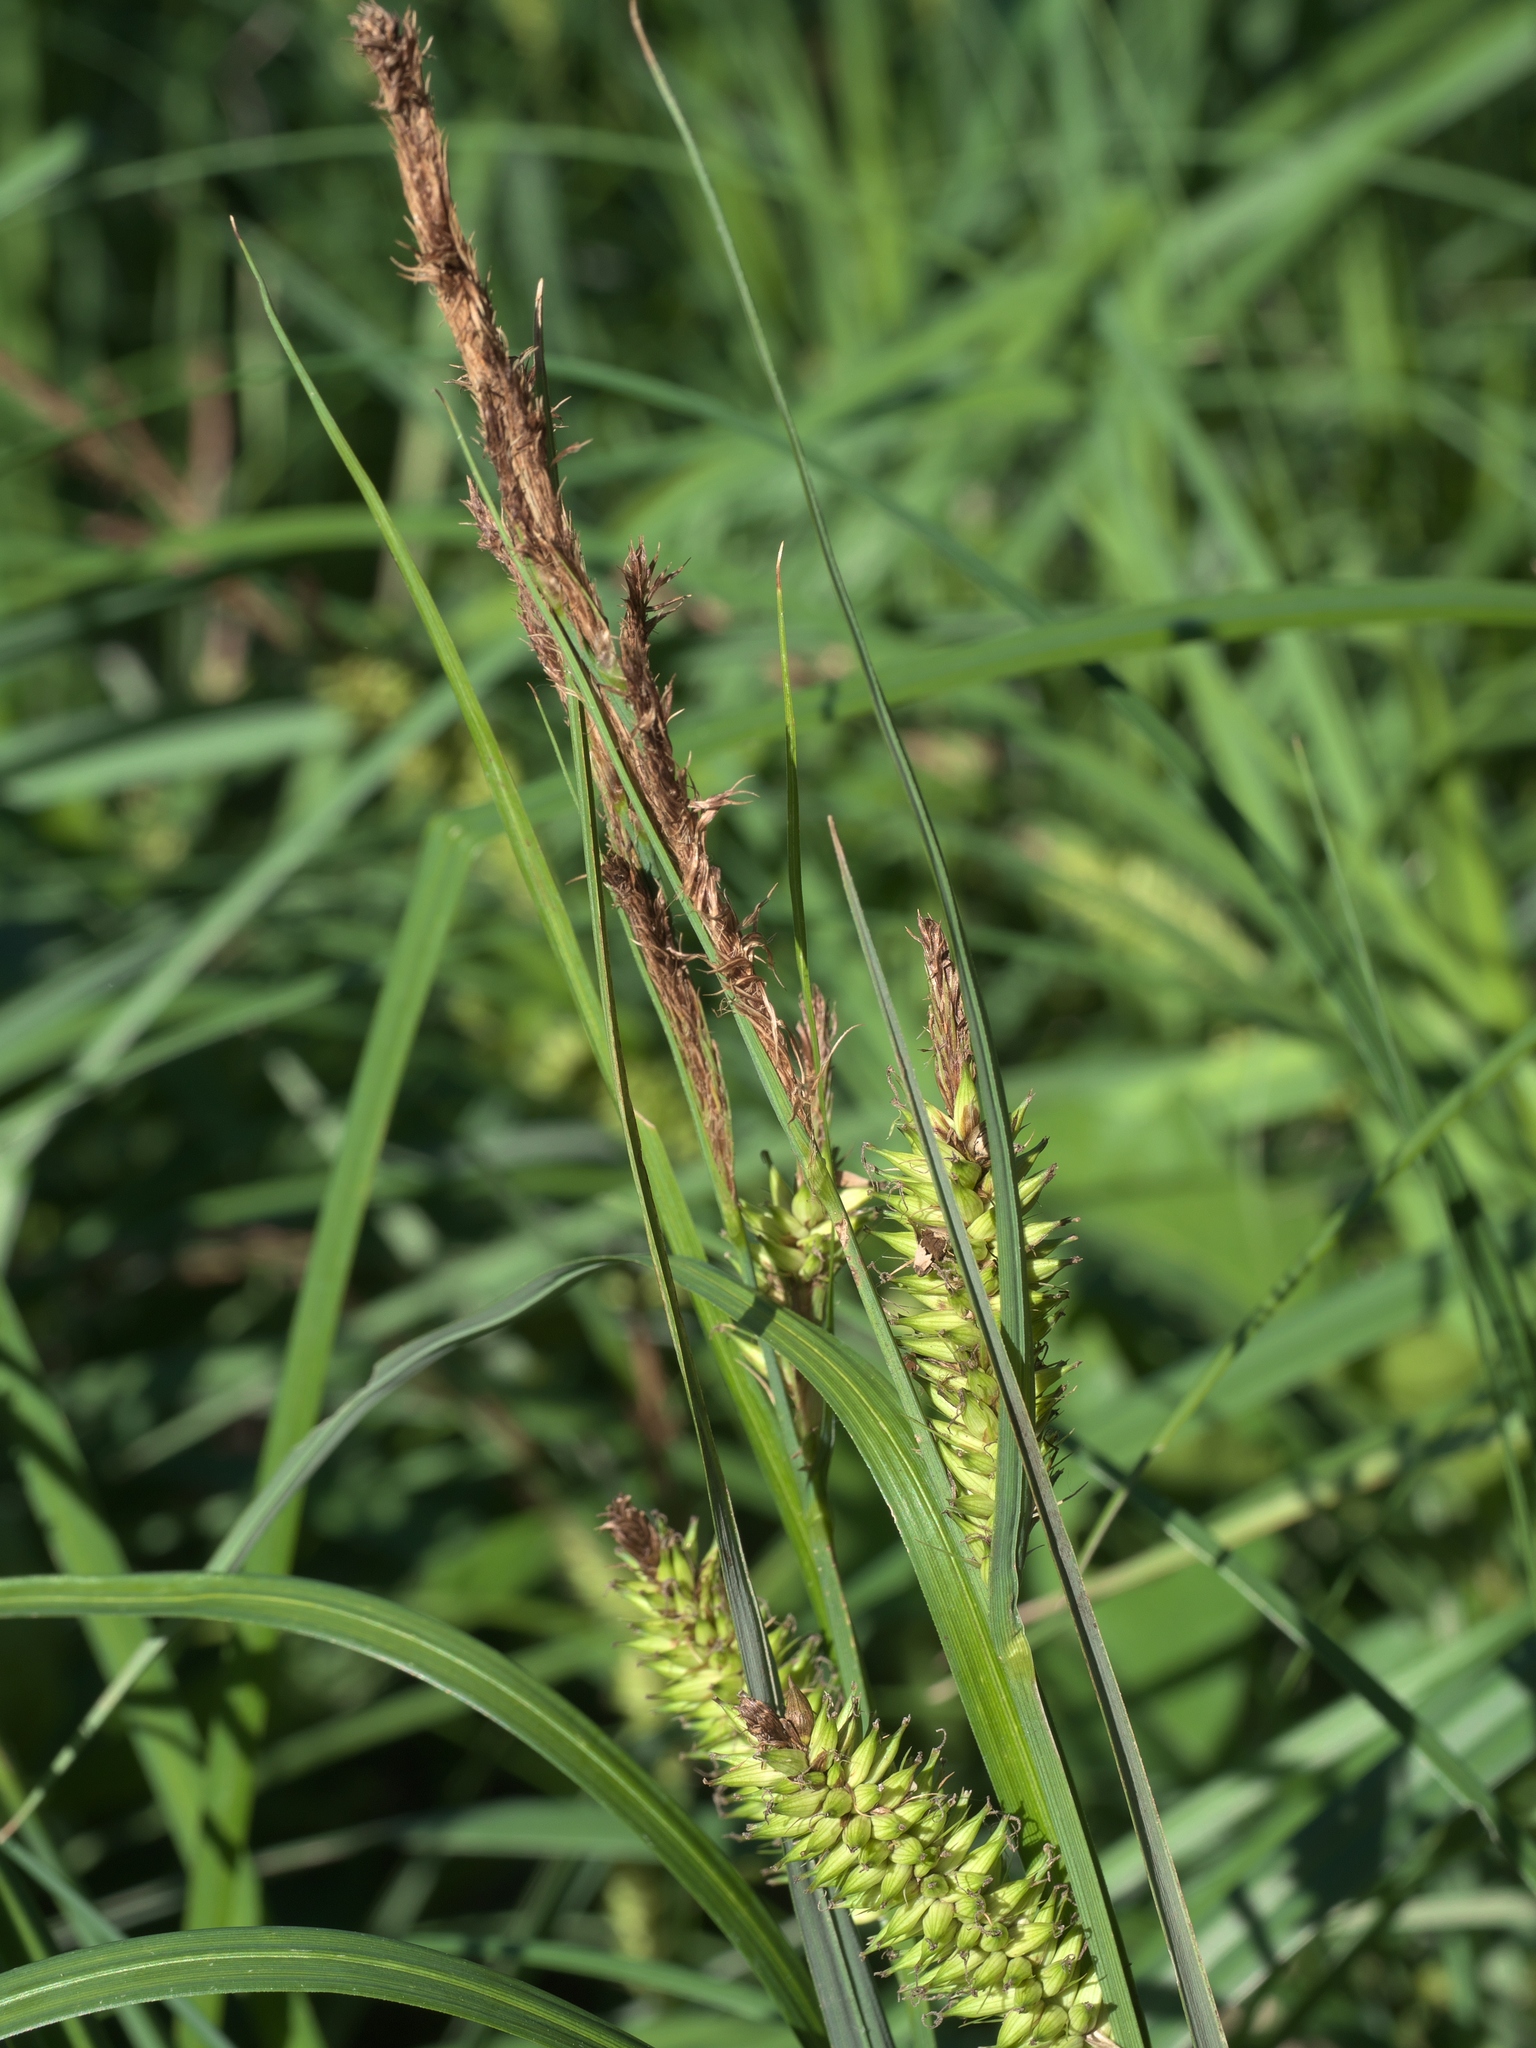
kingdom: Plantae
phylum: Tracheophyta
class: Liliopsida
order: Poales
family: Cyperaceae
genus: Carex
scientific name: Carex hyalinolepis
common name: Shoreline sedge
